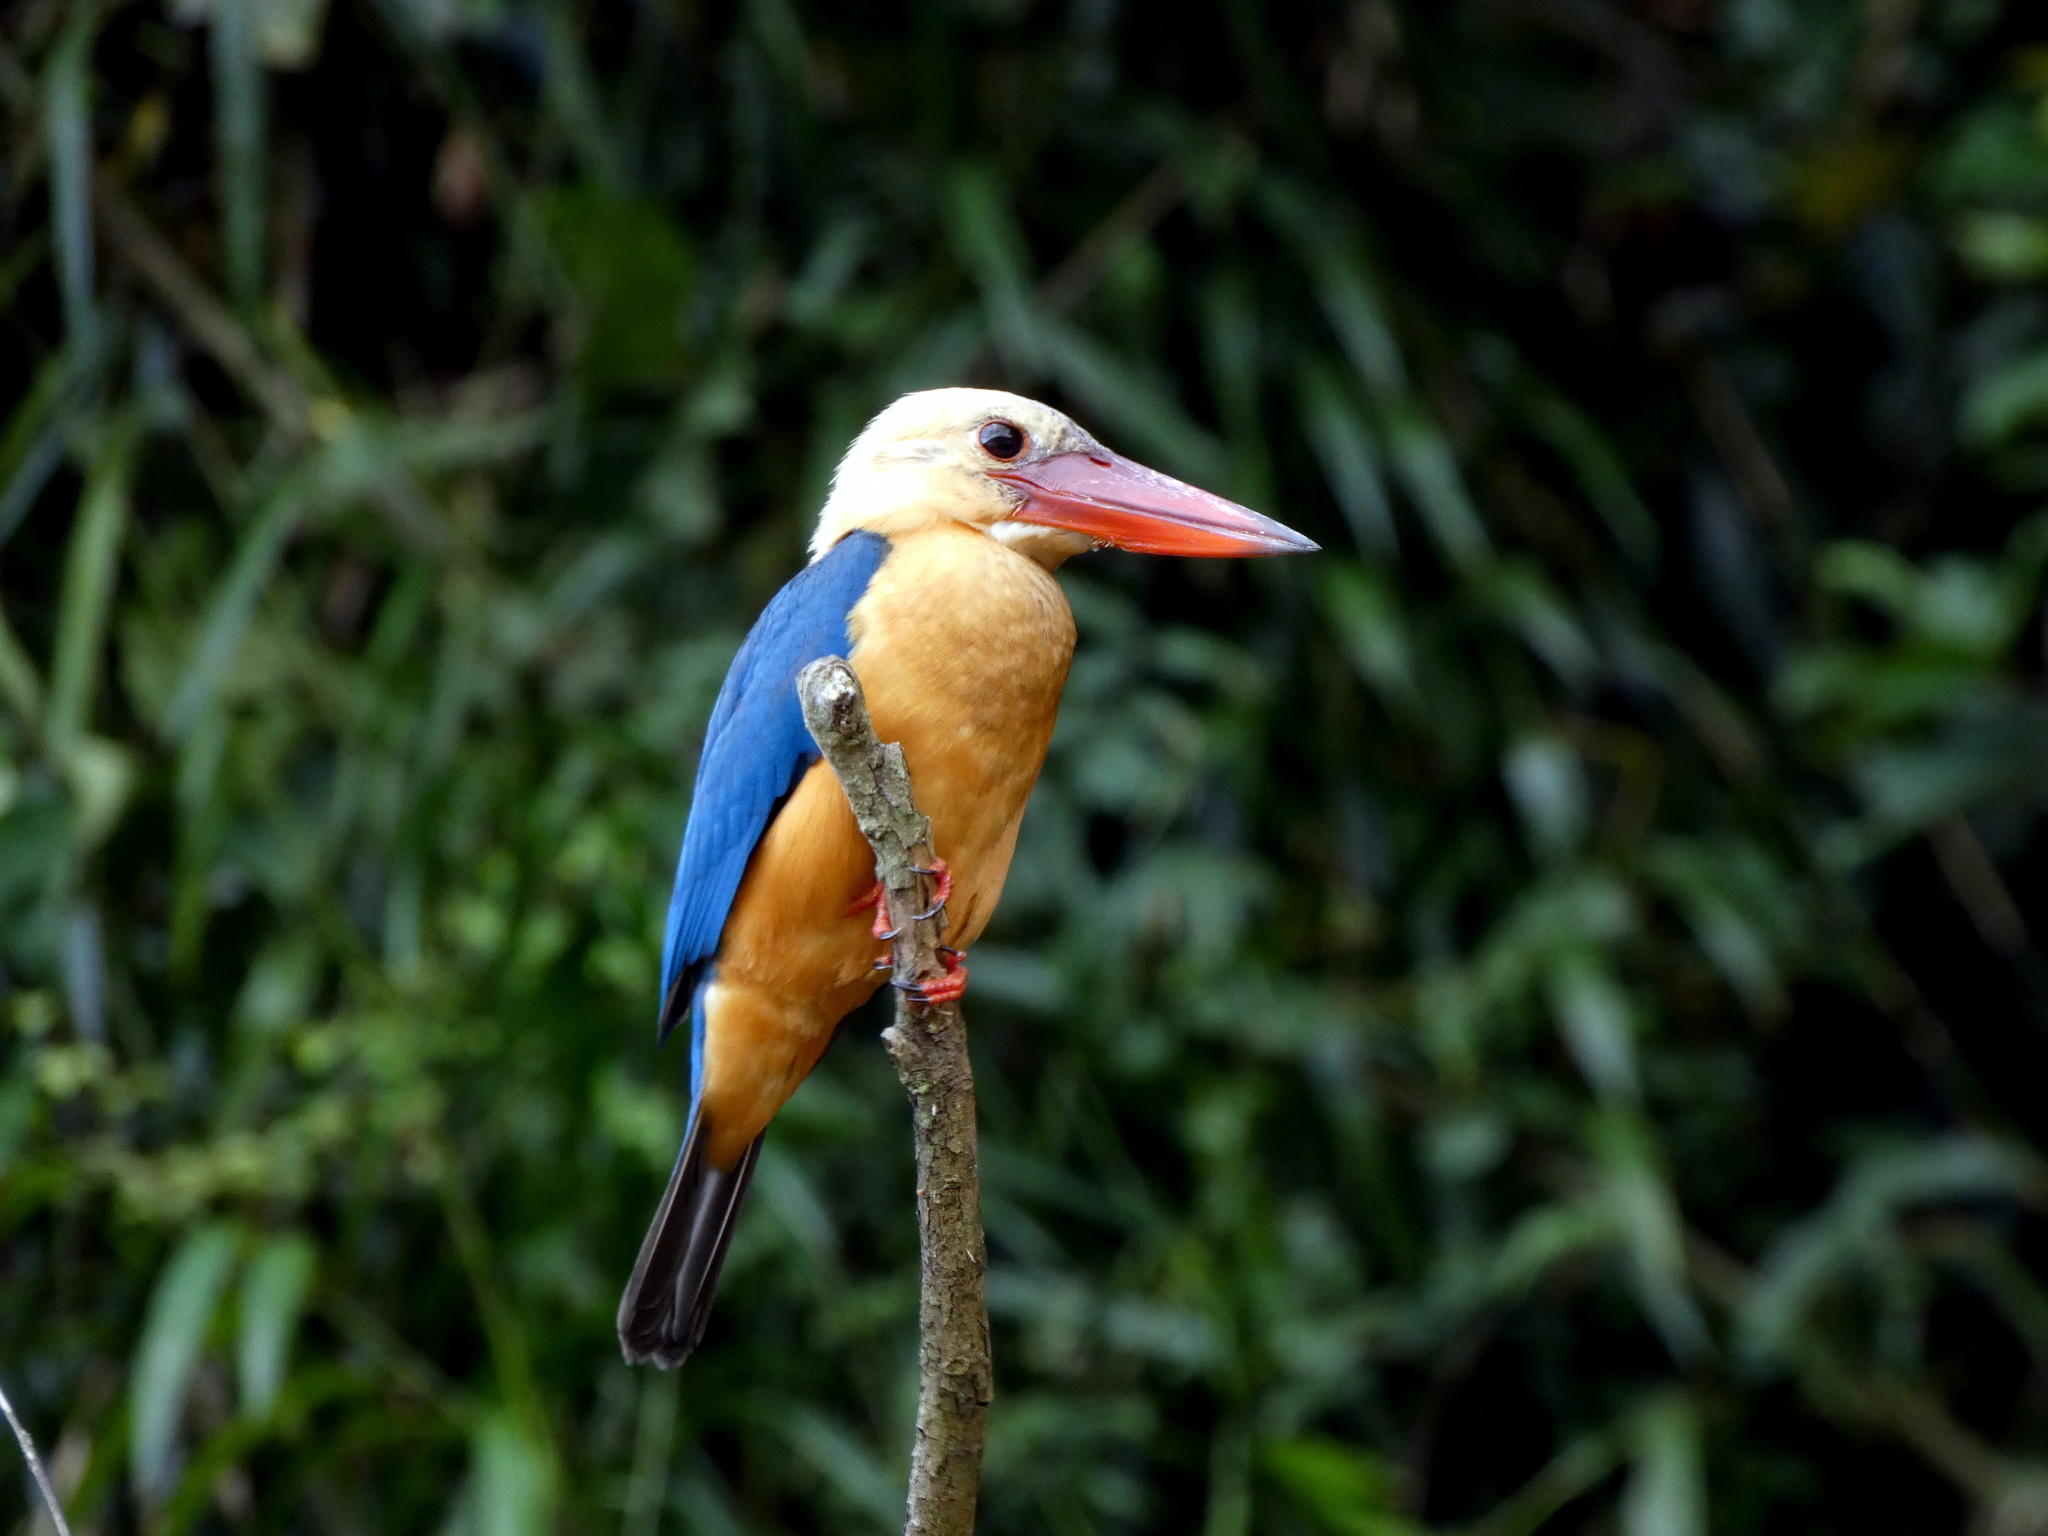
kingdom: Animalia
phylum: Chordata
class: Aves
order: Coraciiformes
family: Alcedinidae
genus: Pelargopsis
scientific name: Pelargopsis capensis
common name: Stork-billed kingfisher
